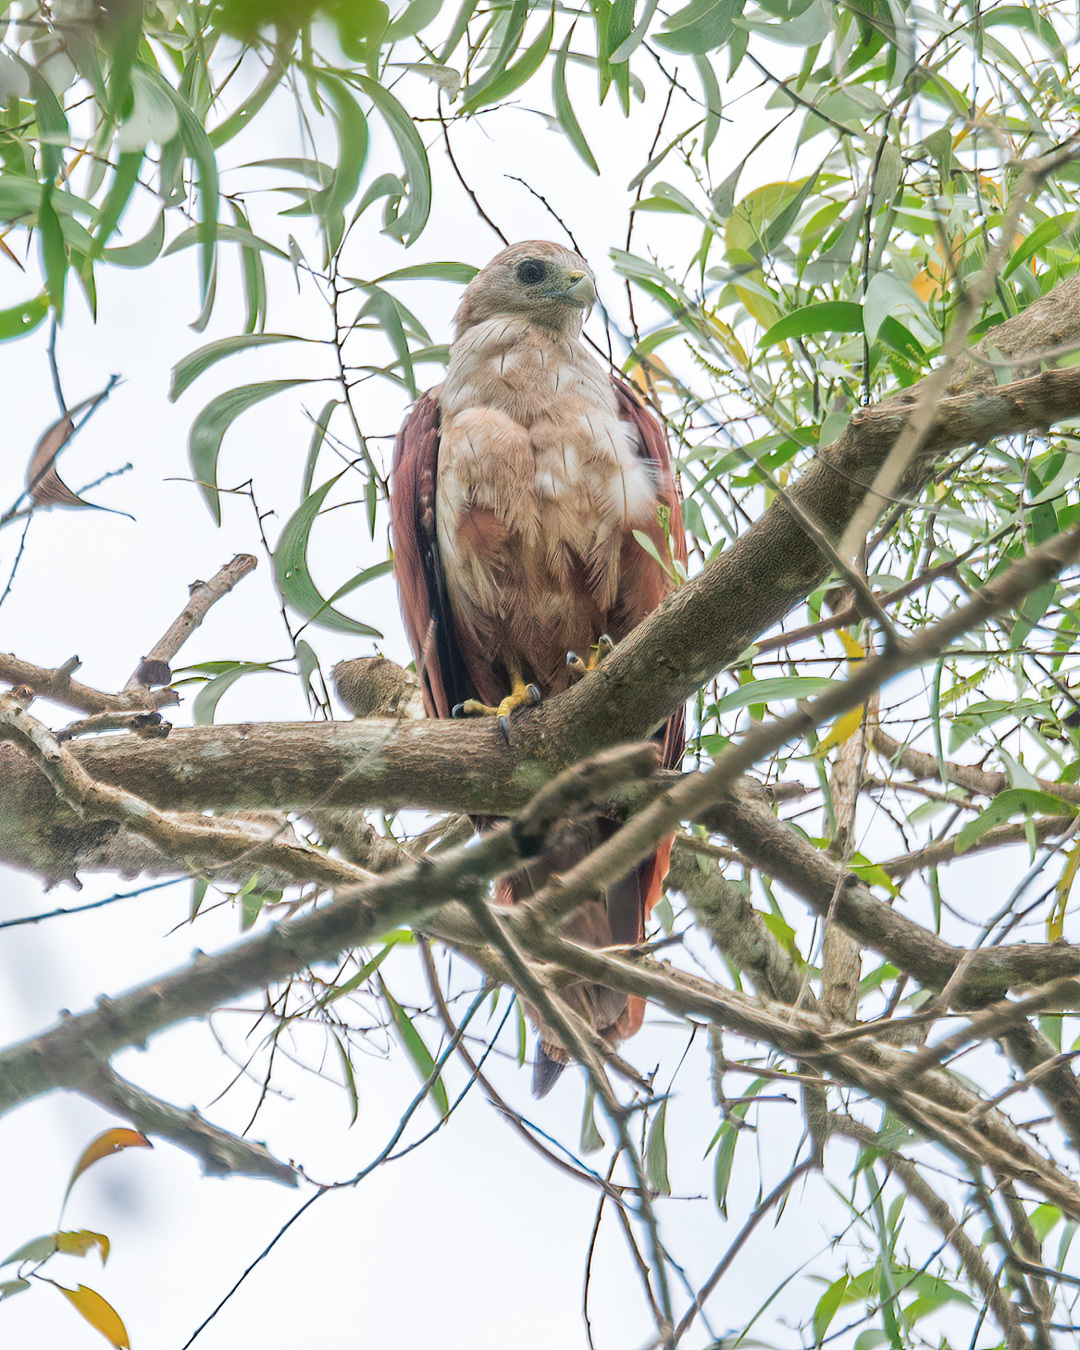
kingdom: Animalia
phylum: Chordata
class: Aves
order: Accipitriformes
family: Accipitridae
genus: Haliastur
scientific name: Haliastur indus
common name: Brahminy kite
